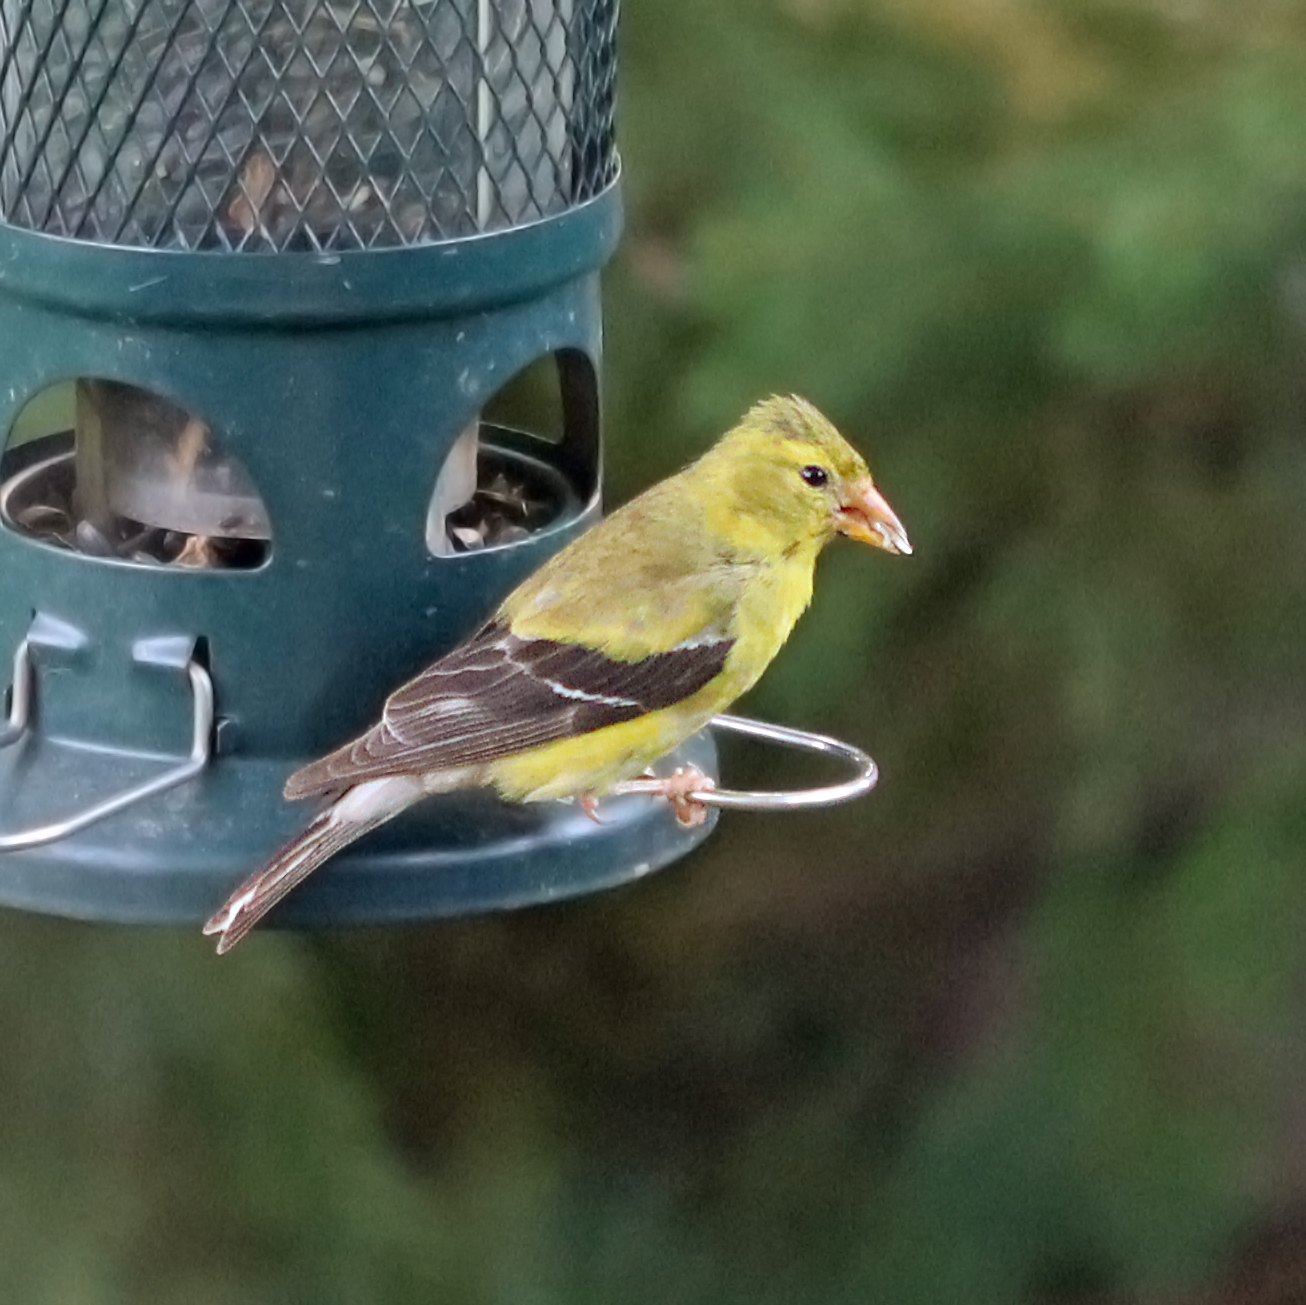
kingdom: Animalia
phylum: Chordata
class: Aves
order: Passeriformes
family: Fringillidae
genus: Spinus
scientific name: Spinus tristis
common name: American goldfinch
